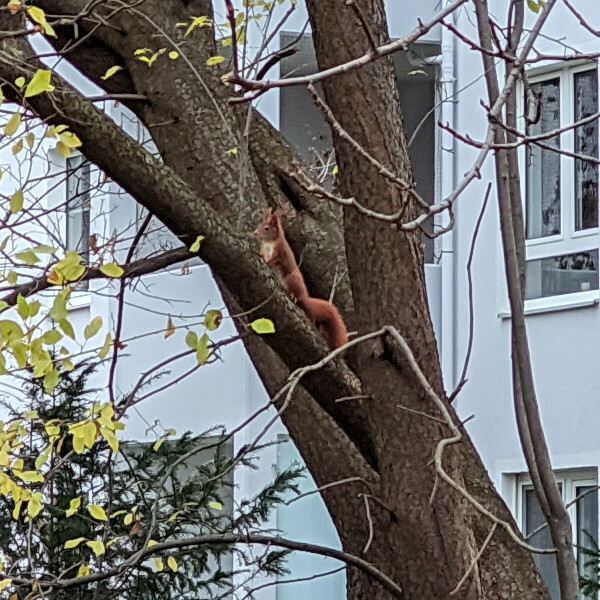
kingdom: Animalia
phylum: Chordata
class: Mammalia
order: Rodentia
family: Sciuridae
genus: Sciurus
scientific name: Sciurus vulgaris
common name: Eurasian red squirrel
